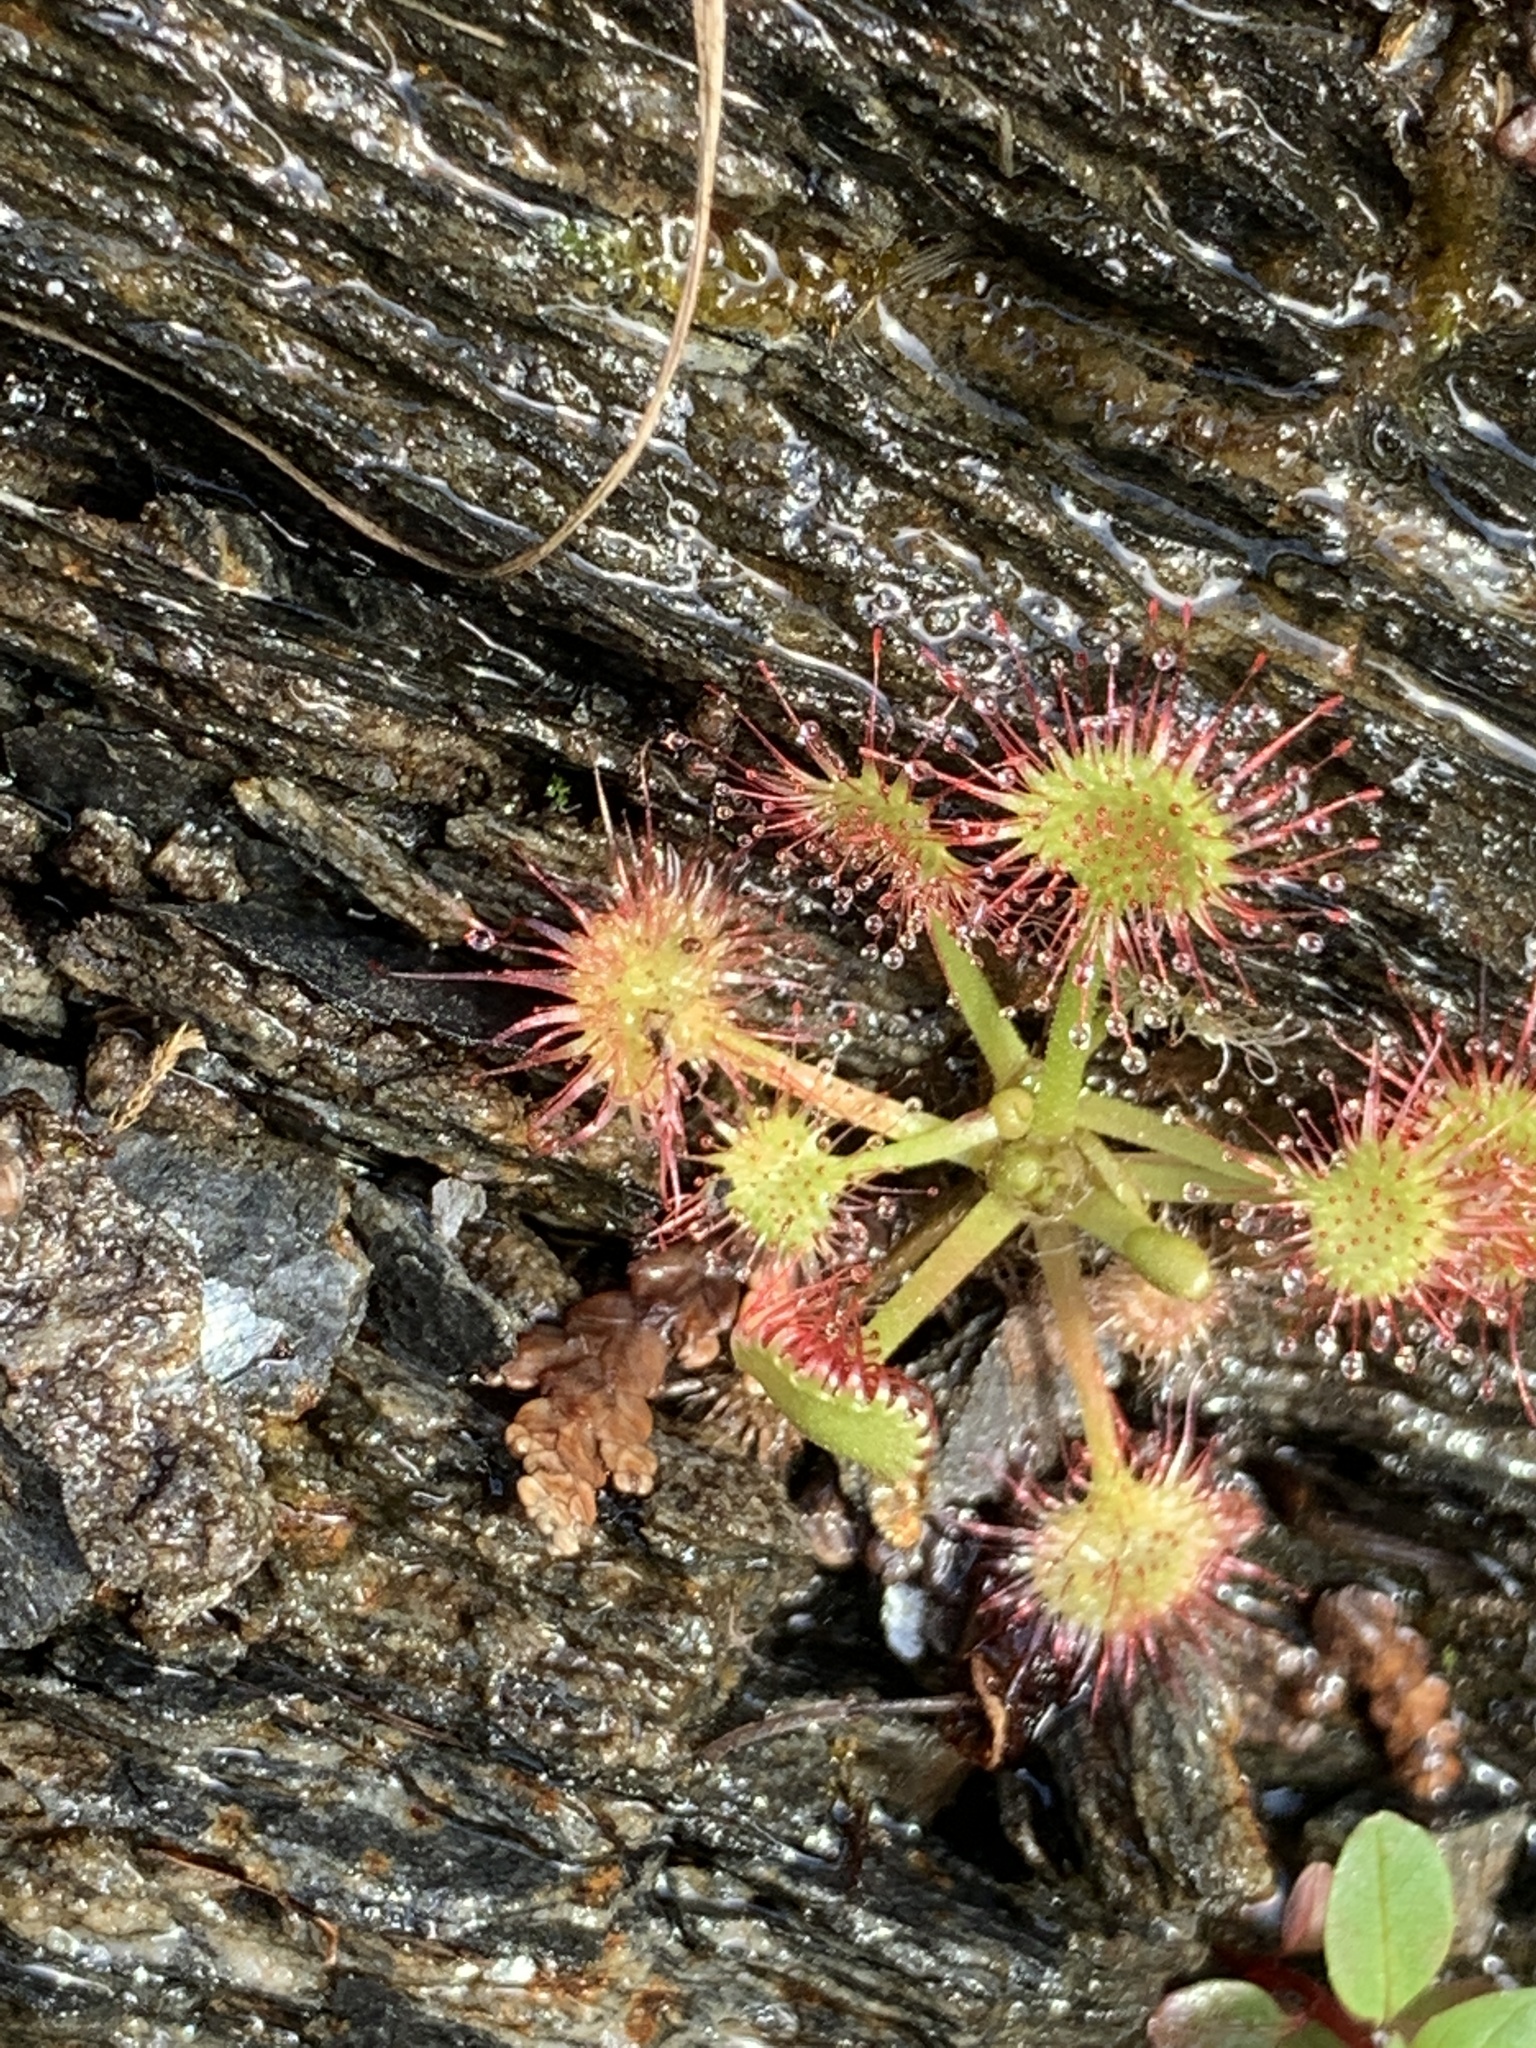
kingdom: Plantae
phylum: Tracheophyta
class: Magnoliopsida
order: Caryophyllales
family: Droseraceae
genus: Drosera
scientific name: Drosera rotundifolia
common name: Round-leaved sundew
